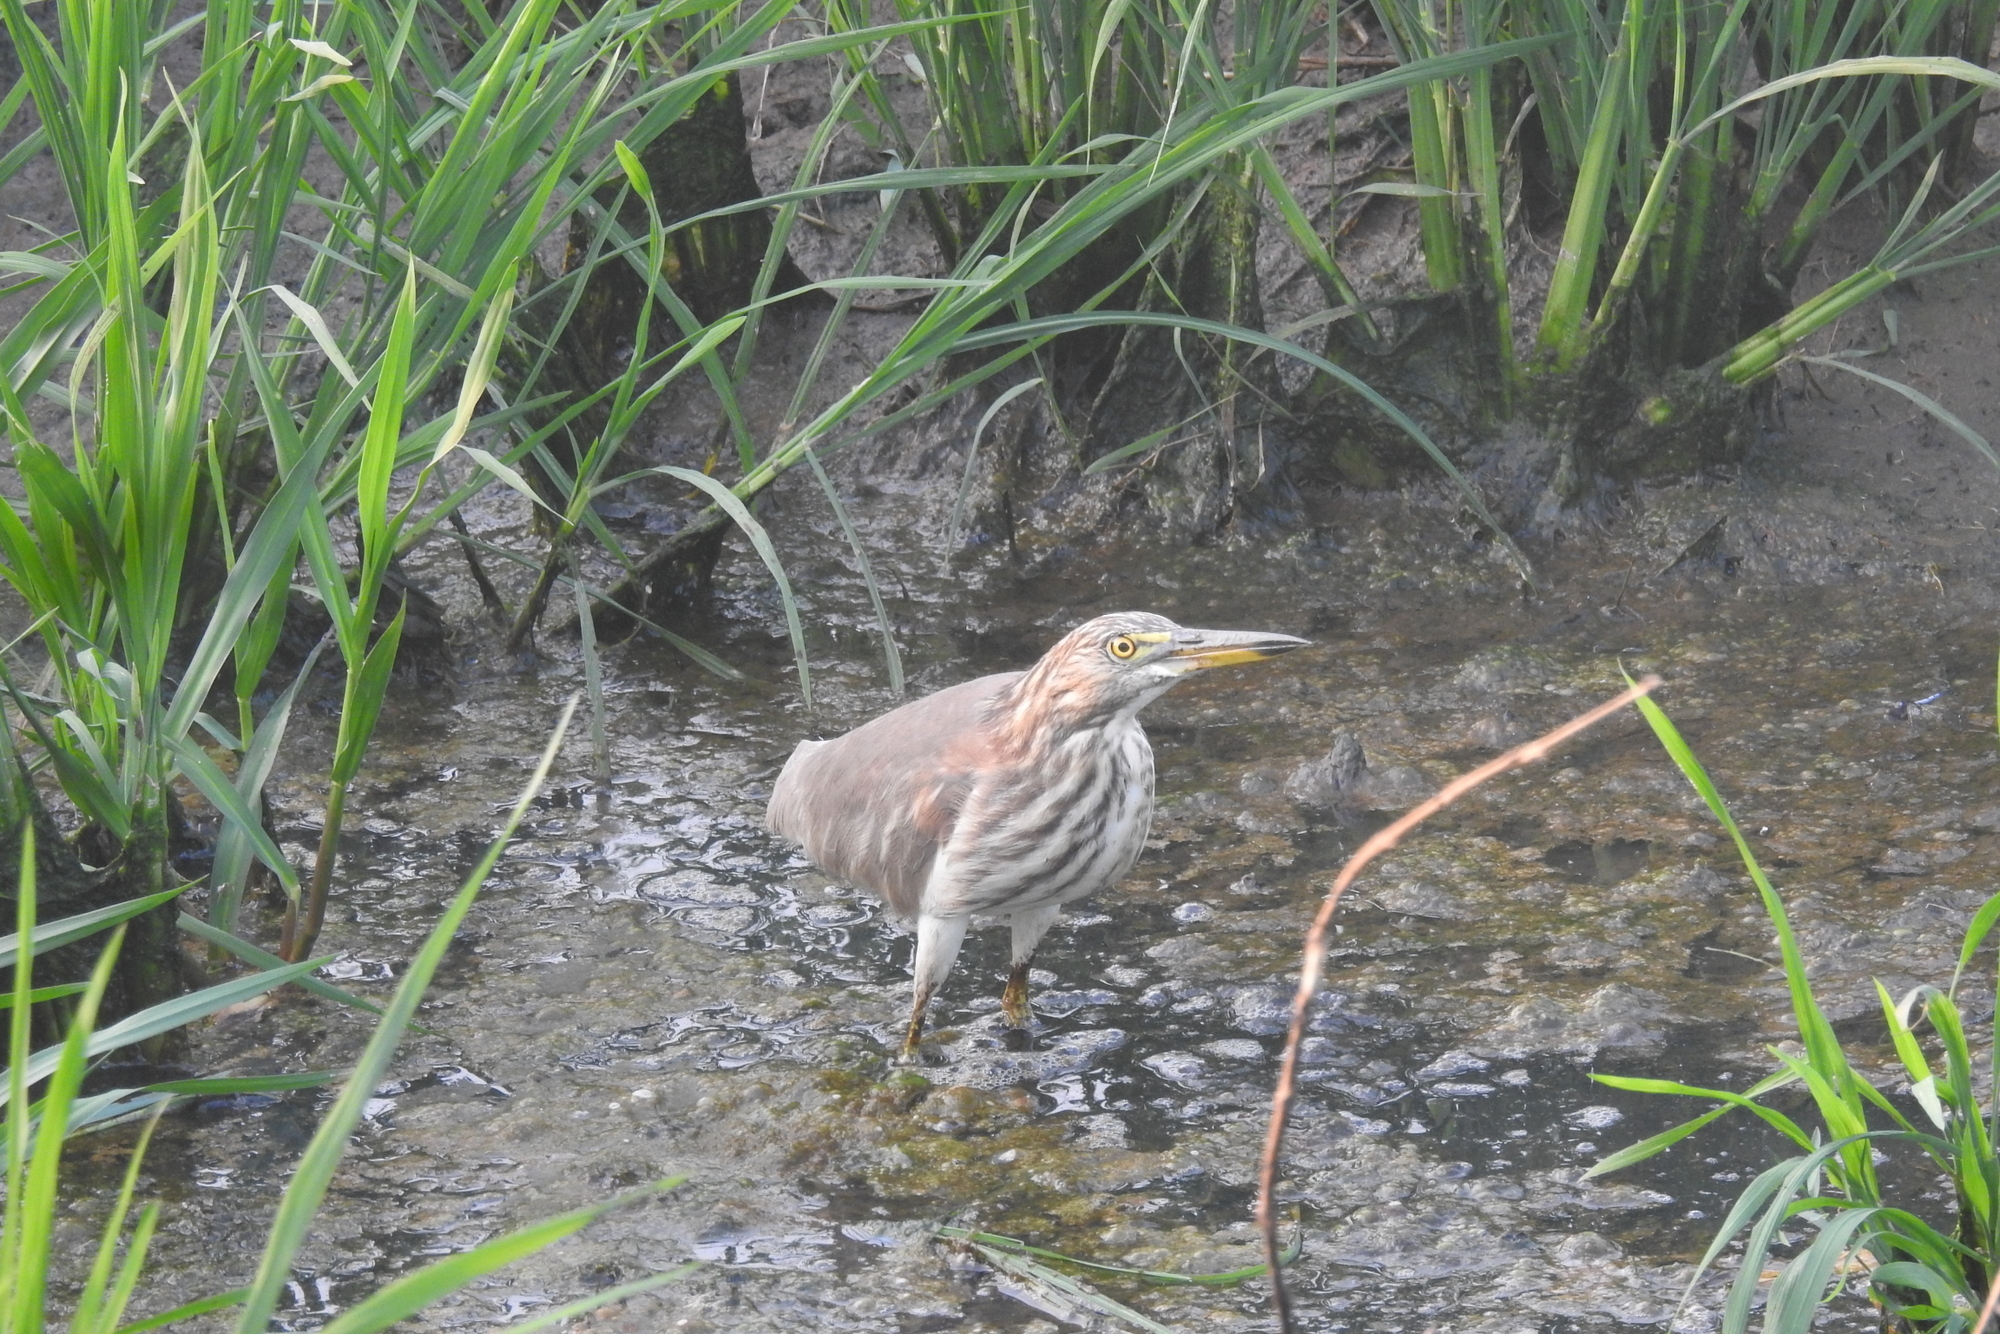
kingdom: Animalia
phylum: Chordata
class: Aves
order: Pelecaniformes
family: Ardeidae
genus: Ardeola
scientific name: Ardeola grayii
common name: Indian pond heron
